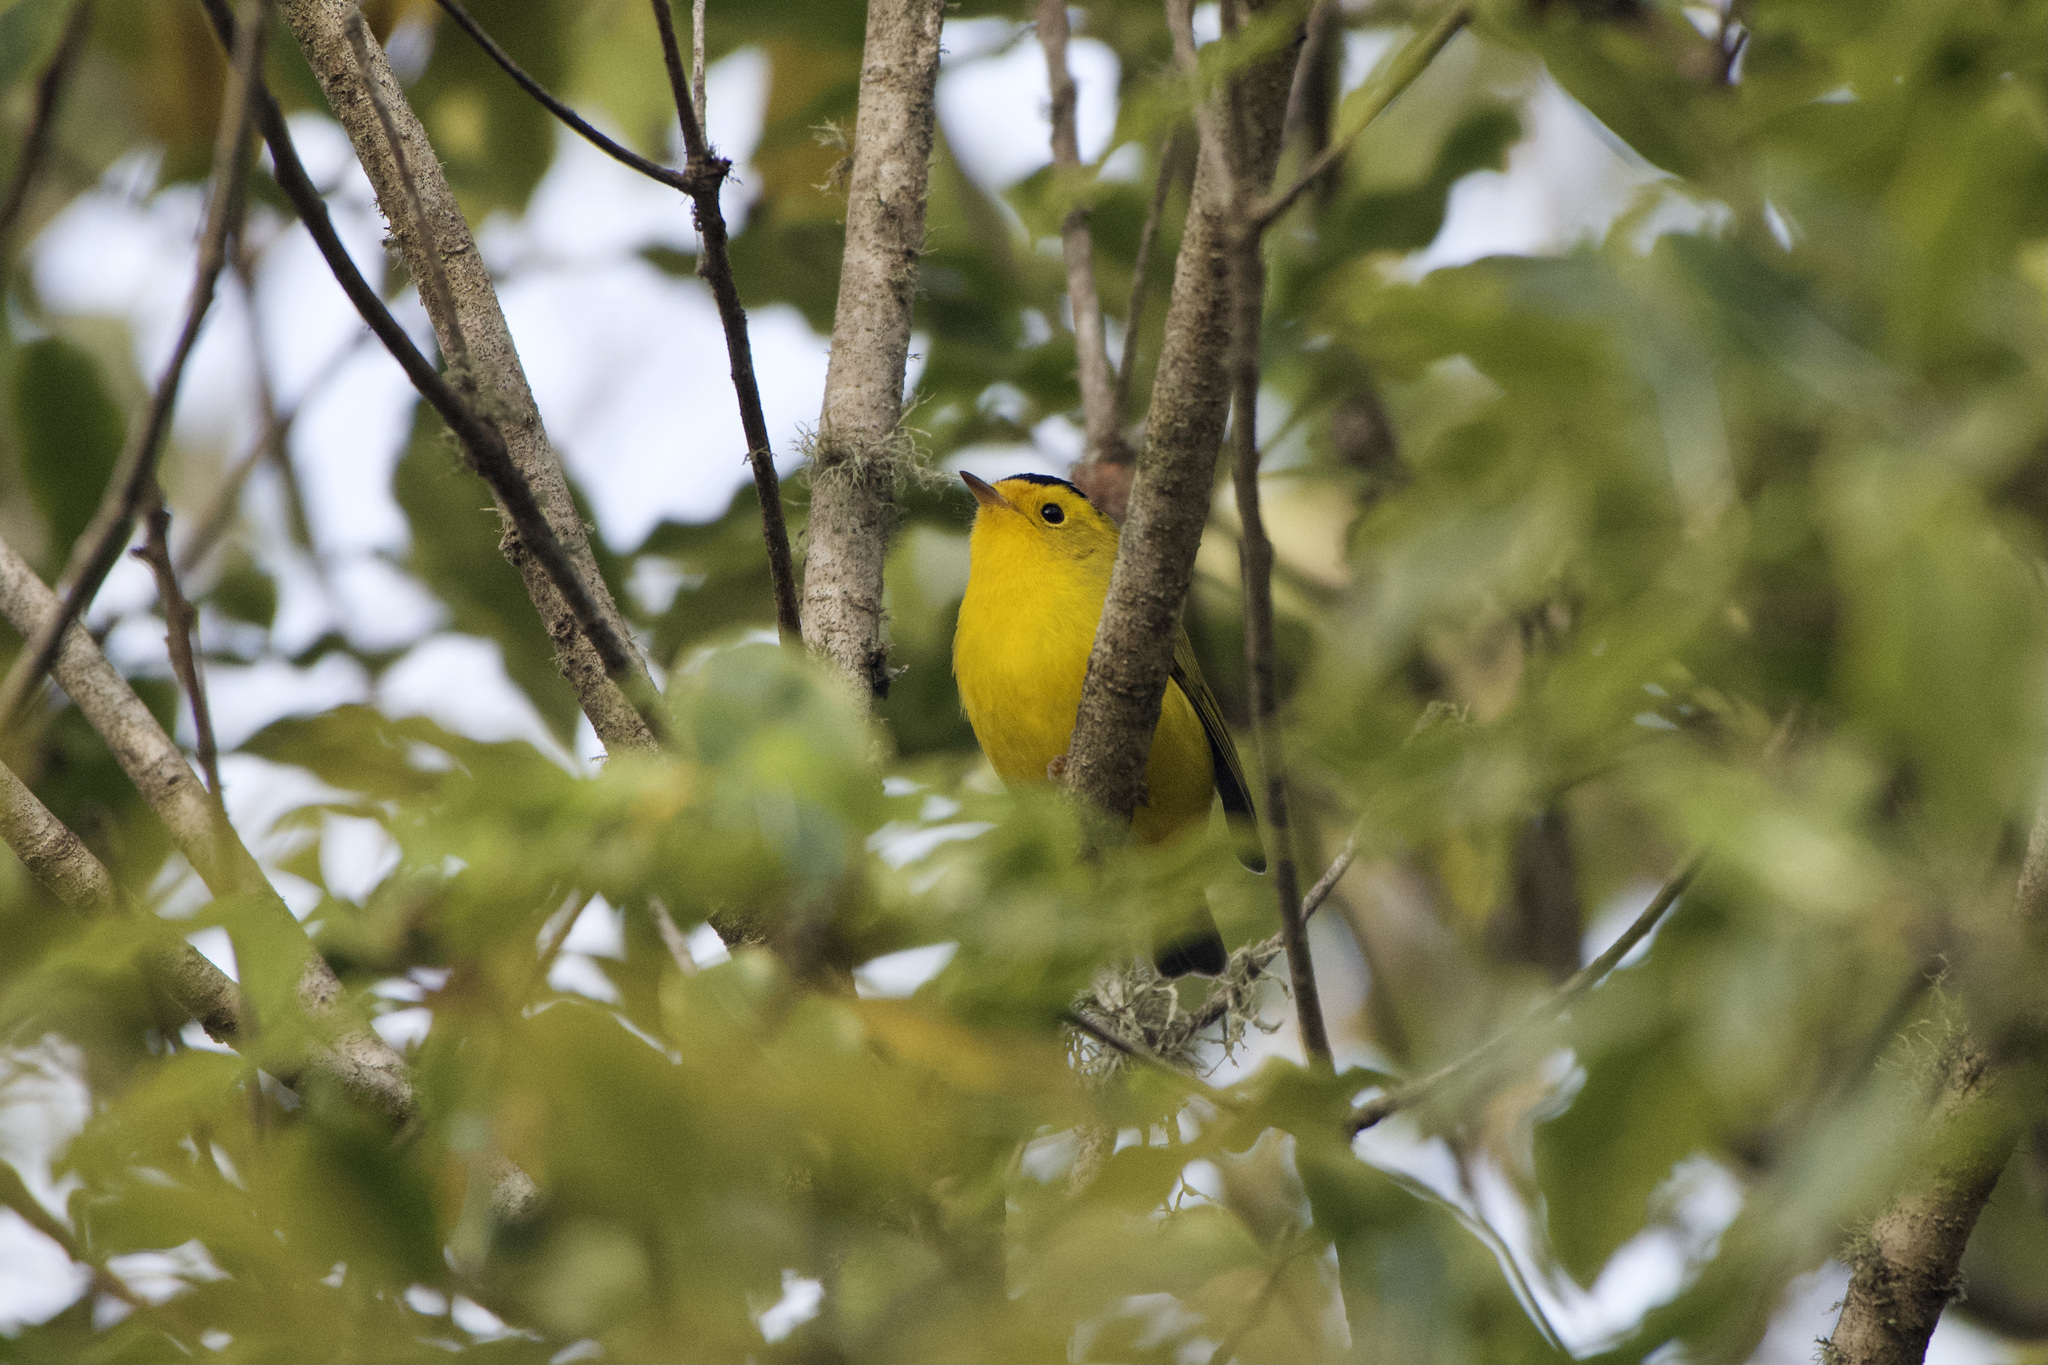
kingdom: Animalia
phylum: Chordata
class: Aves
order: Passeriformes
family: Parulidae
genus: Cardellina
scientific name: Cardellina pusilla
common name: Wilson's warbler
